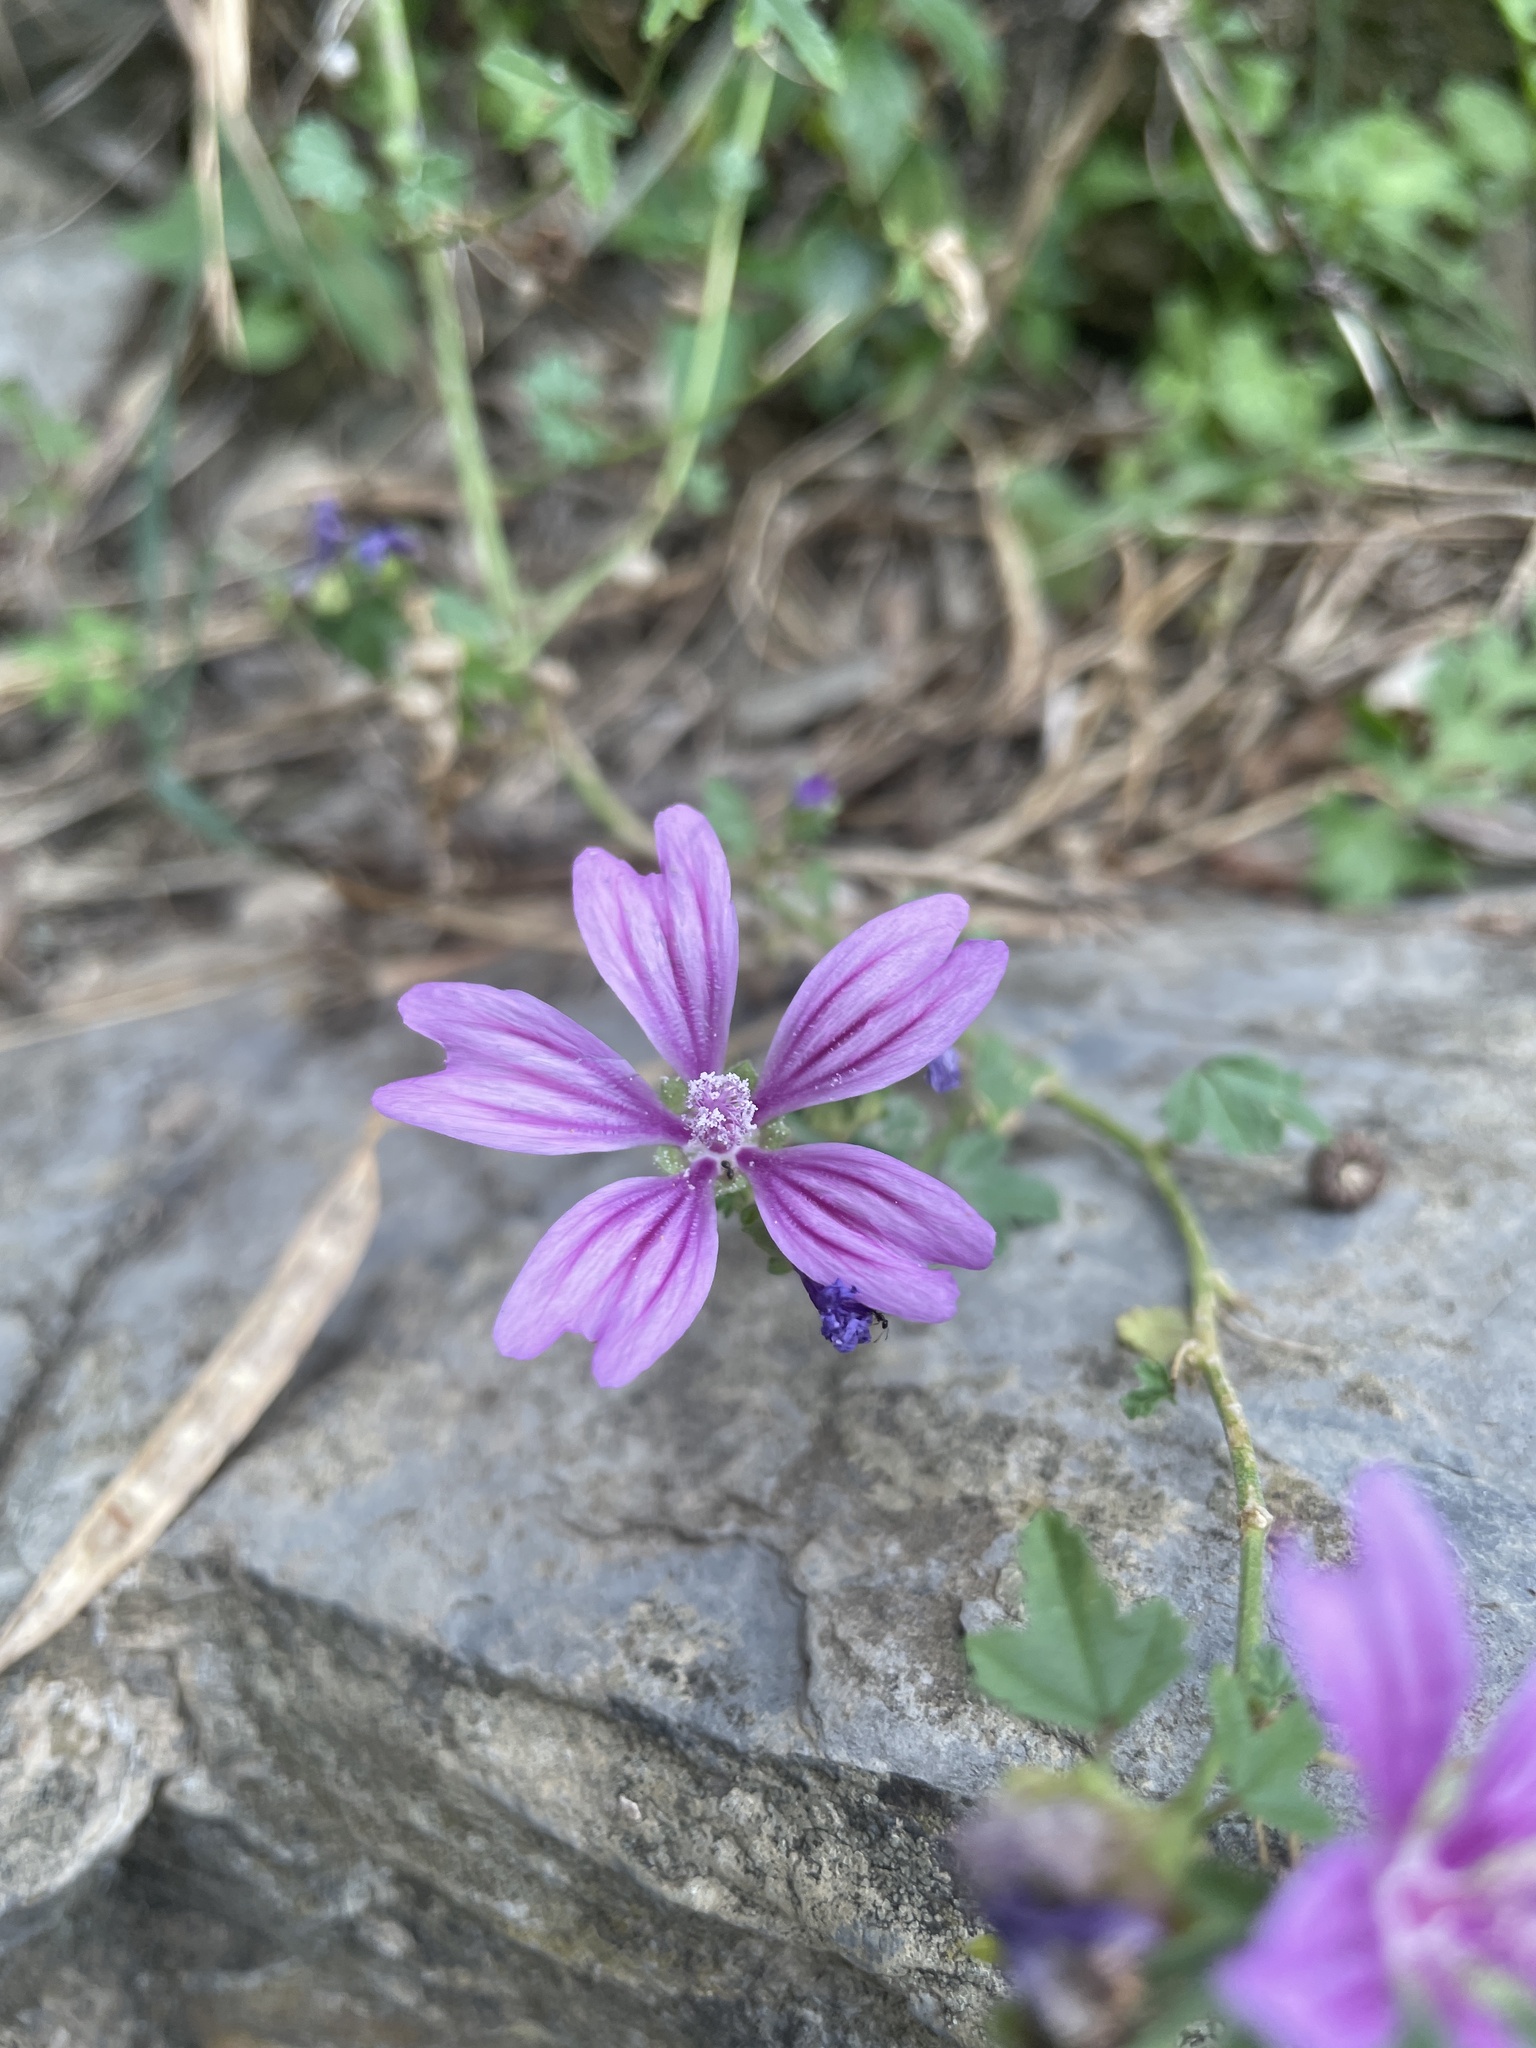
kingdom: Plantae
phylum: Tracheophyta
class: Magnoliopsida
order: Malvales
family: Malvaceae
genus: Malva
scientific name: Malva sylvestris
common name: Common mallow
